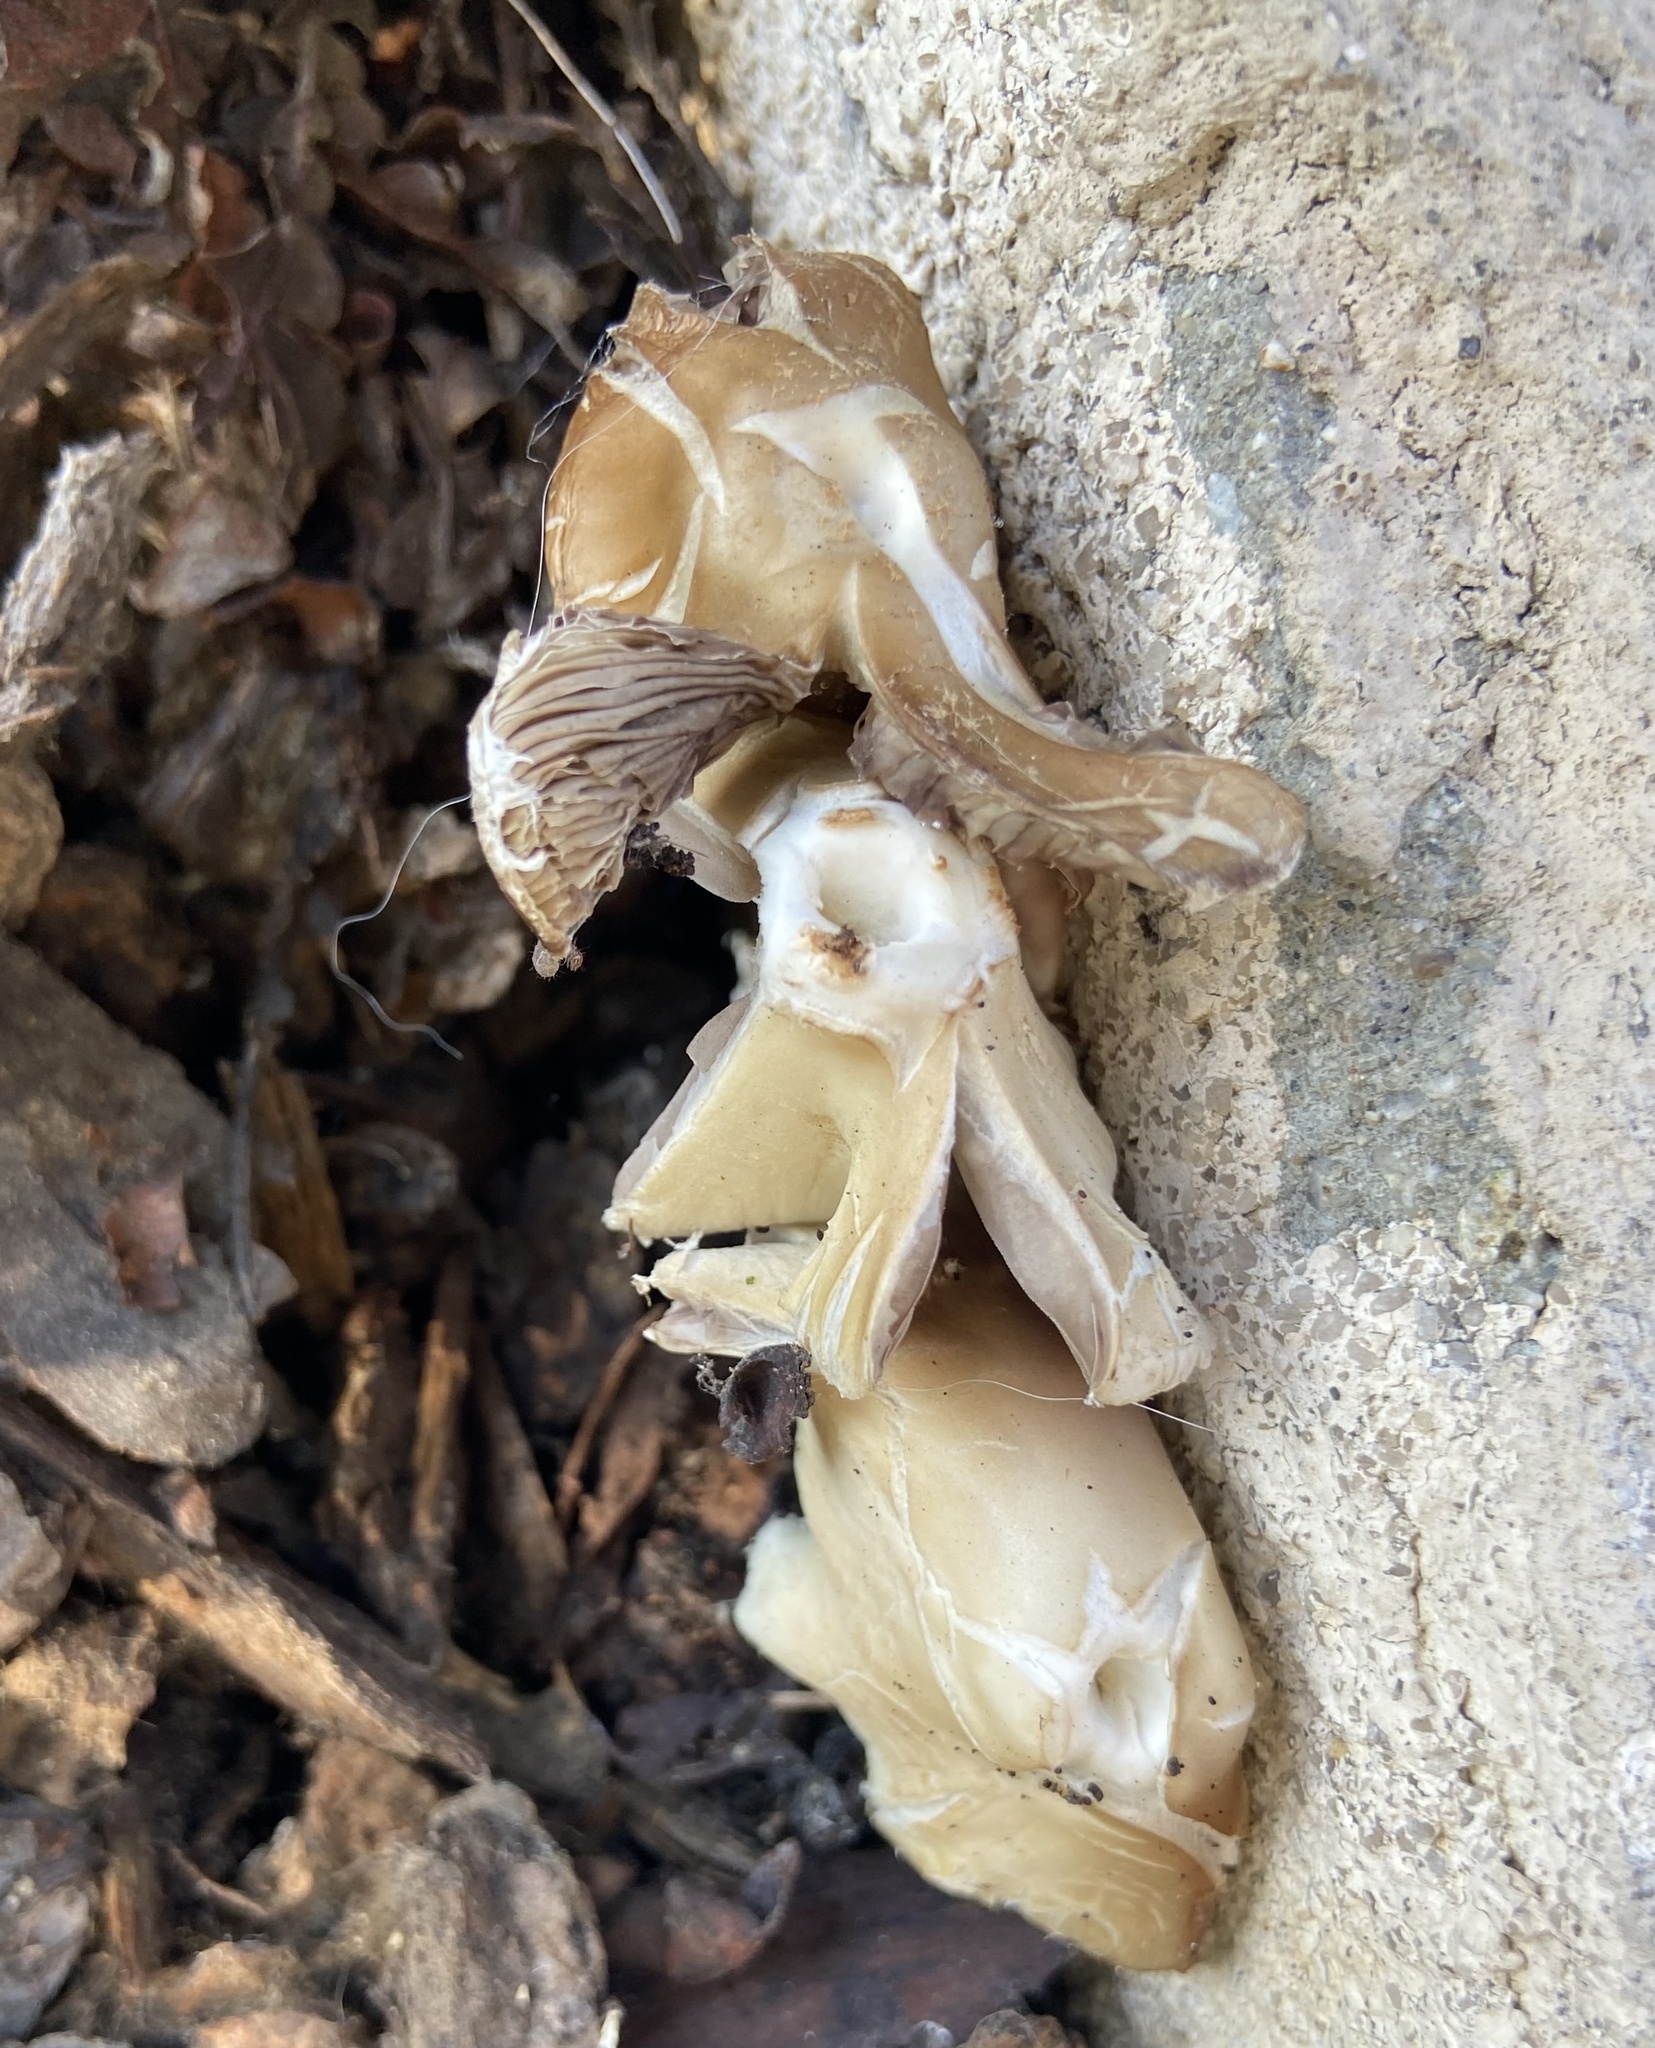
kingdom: Fungi
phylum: Basidiomycota
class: Agaricomycetes
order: Agaricales
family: Psathyrellaceae
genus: Candolleomyces
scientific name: Candolleomyces candolleanus
